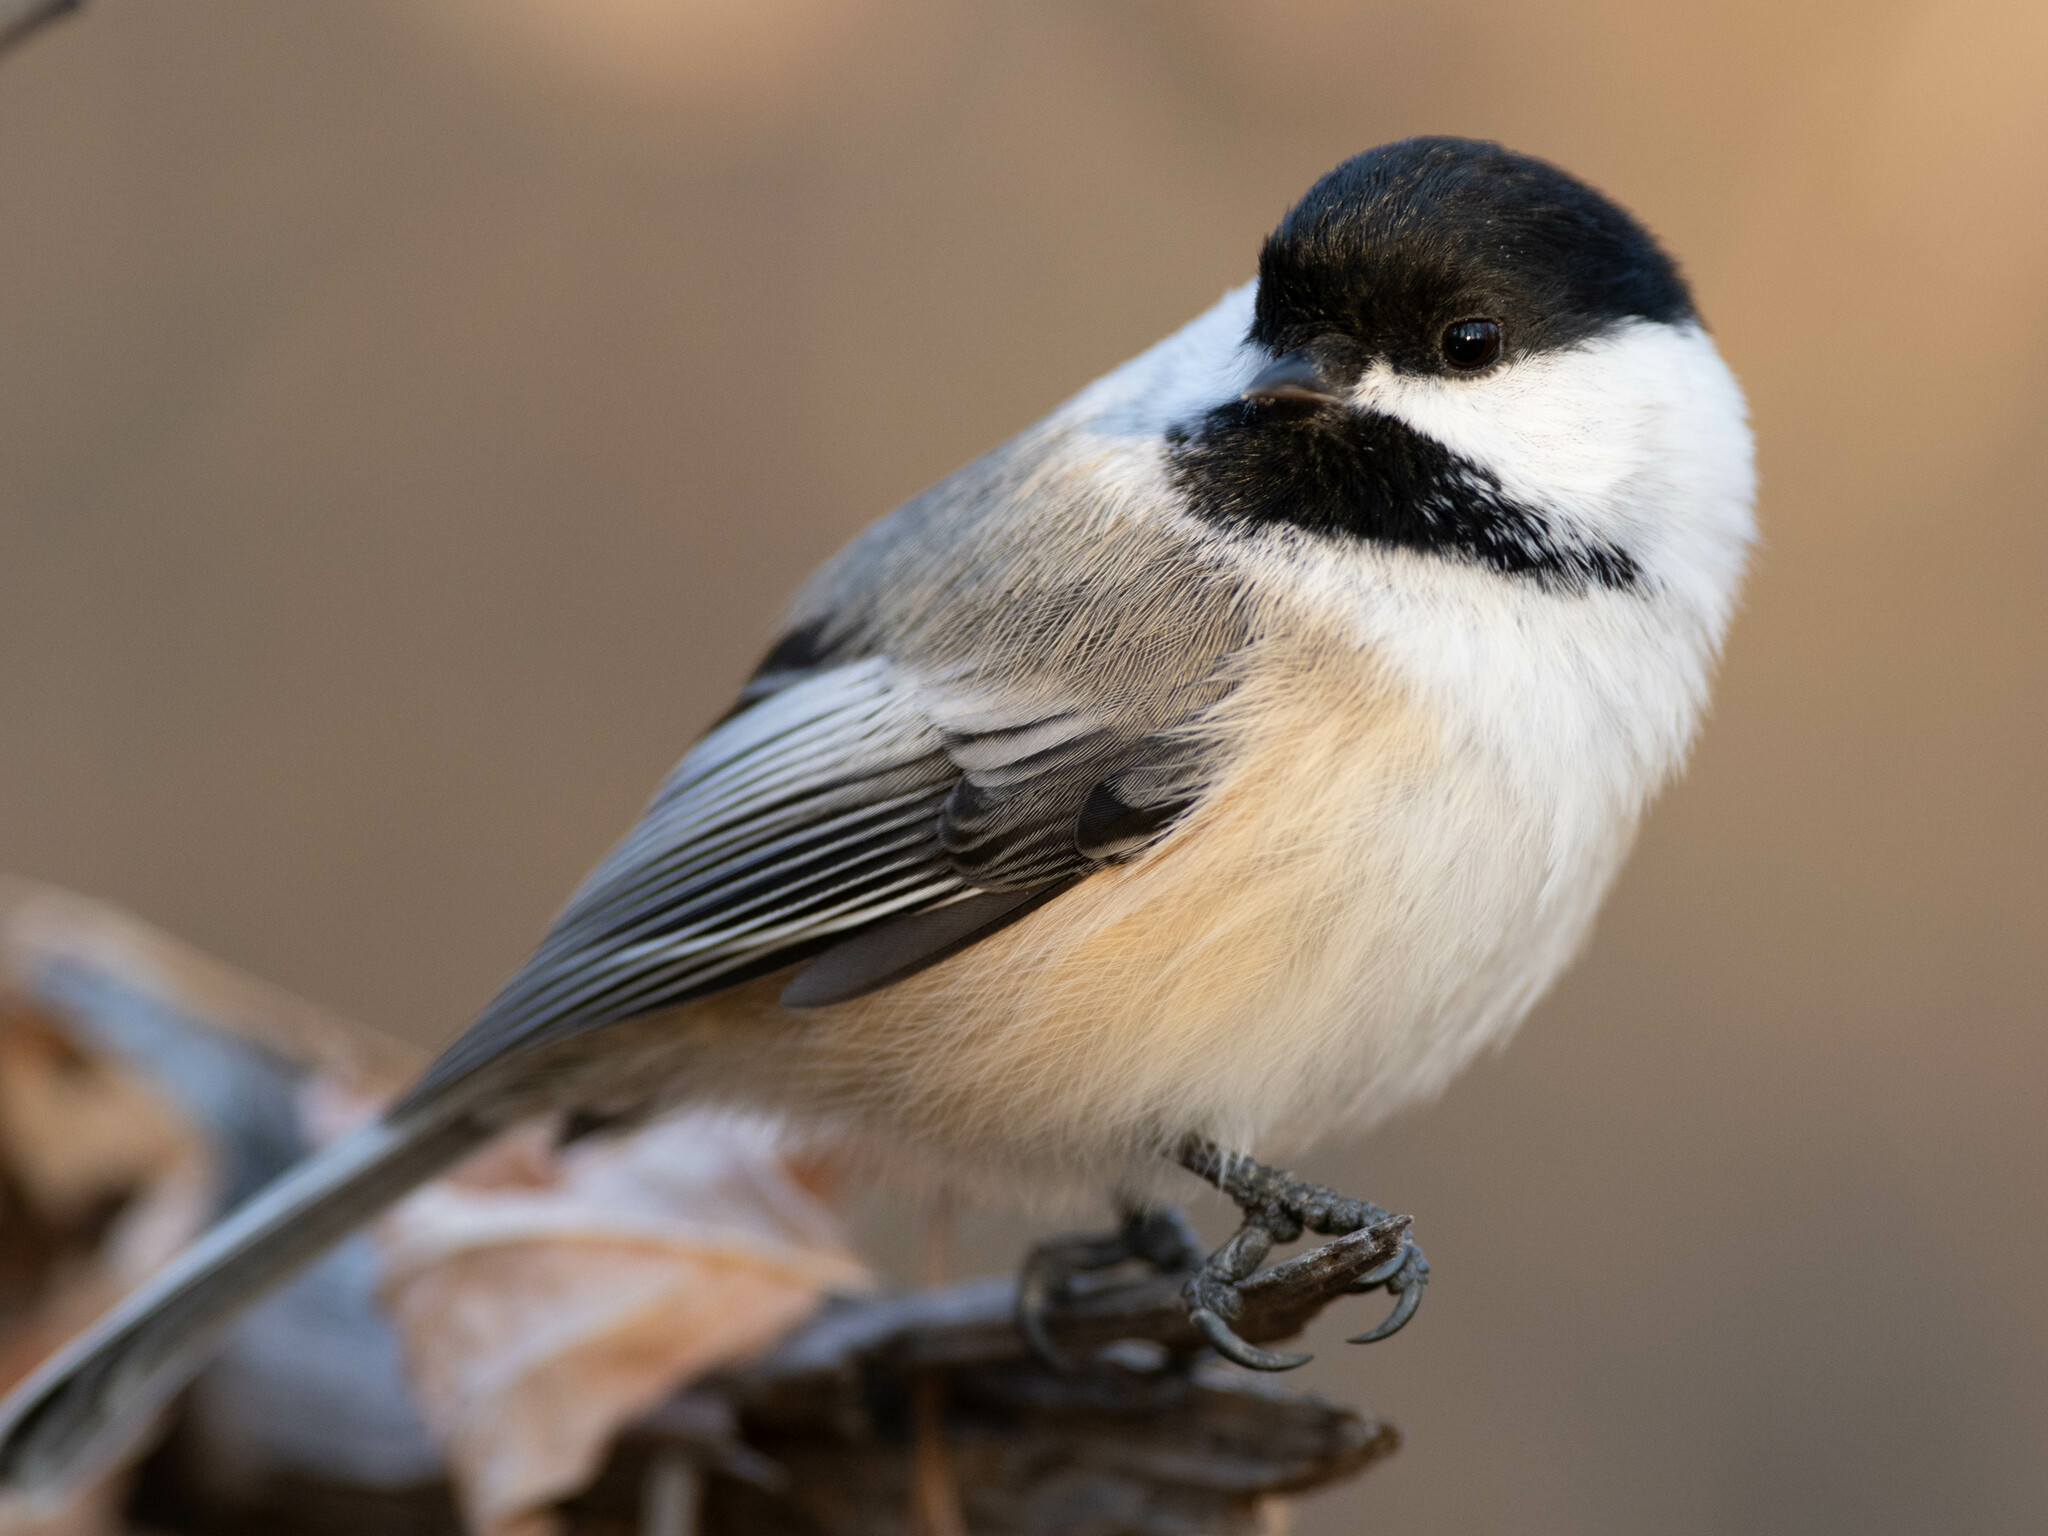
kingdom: Animalia
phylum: Chordata
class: Aves
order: Passeriformes
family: Paridae
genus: Poecile
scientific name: Poecile atricapillus
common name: Black-capped chickadee
